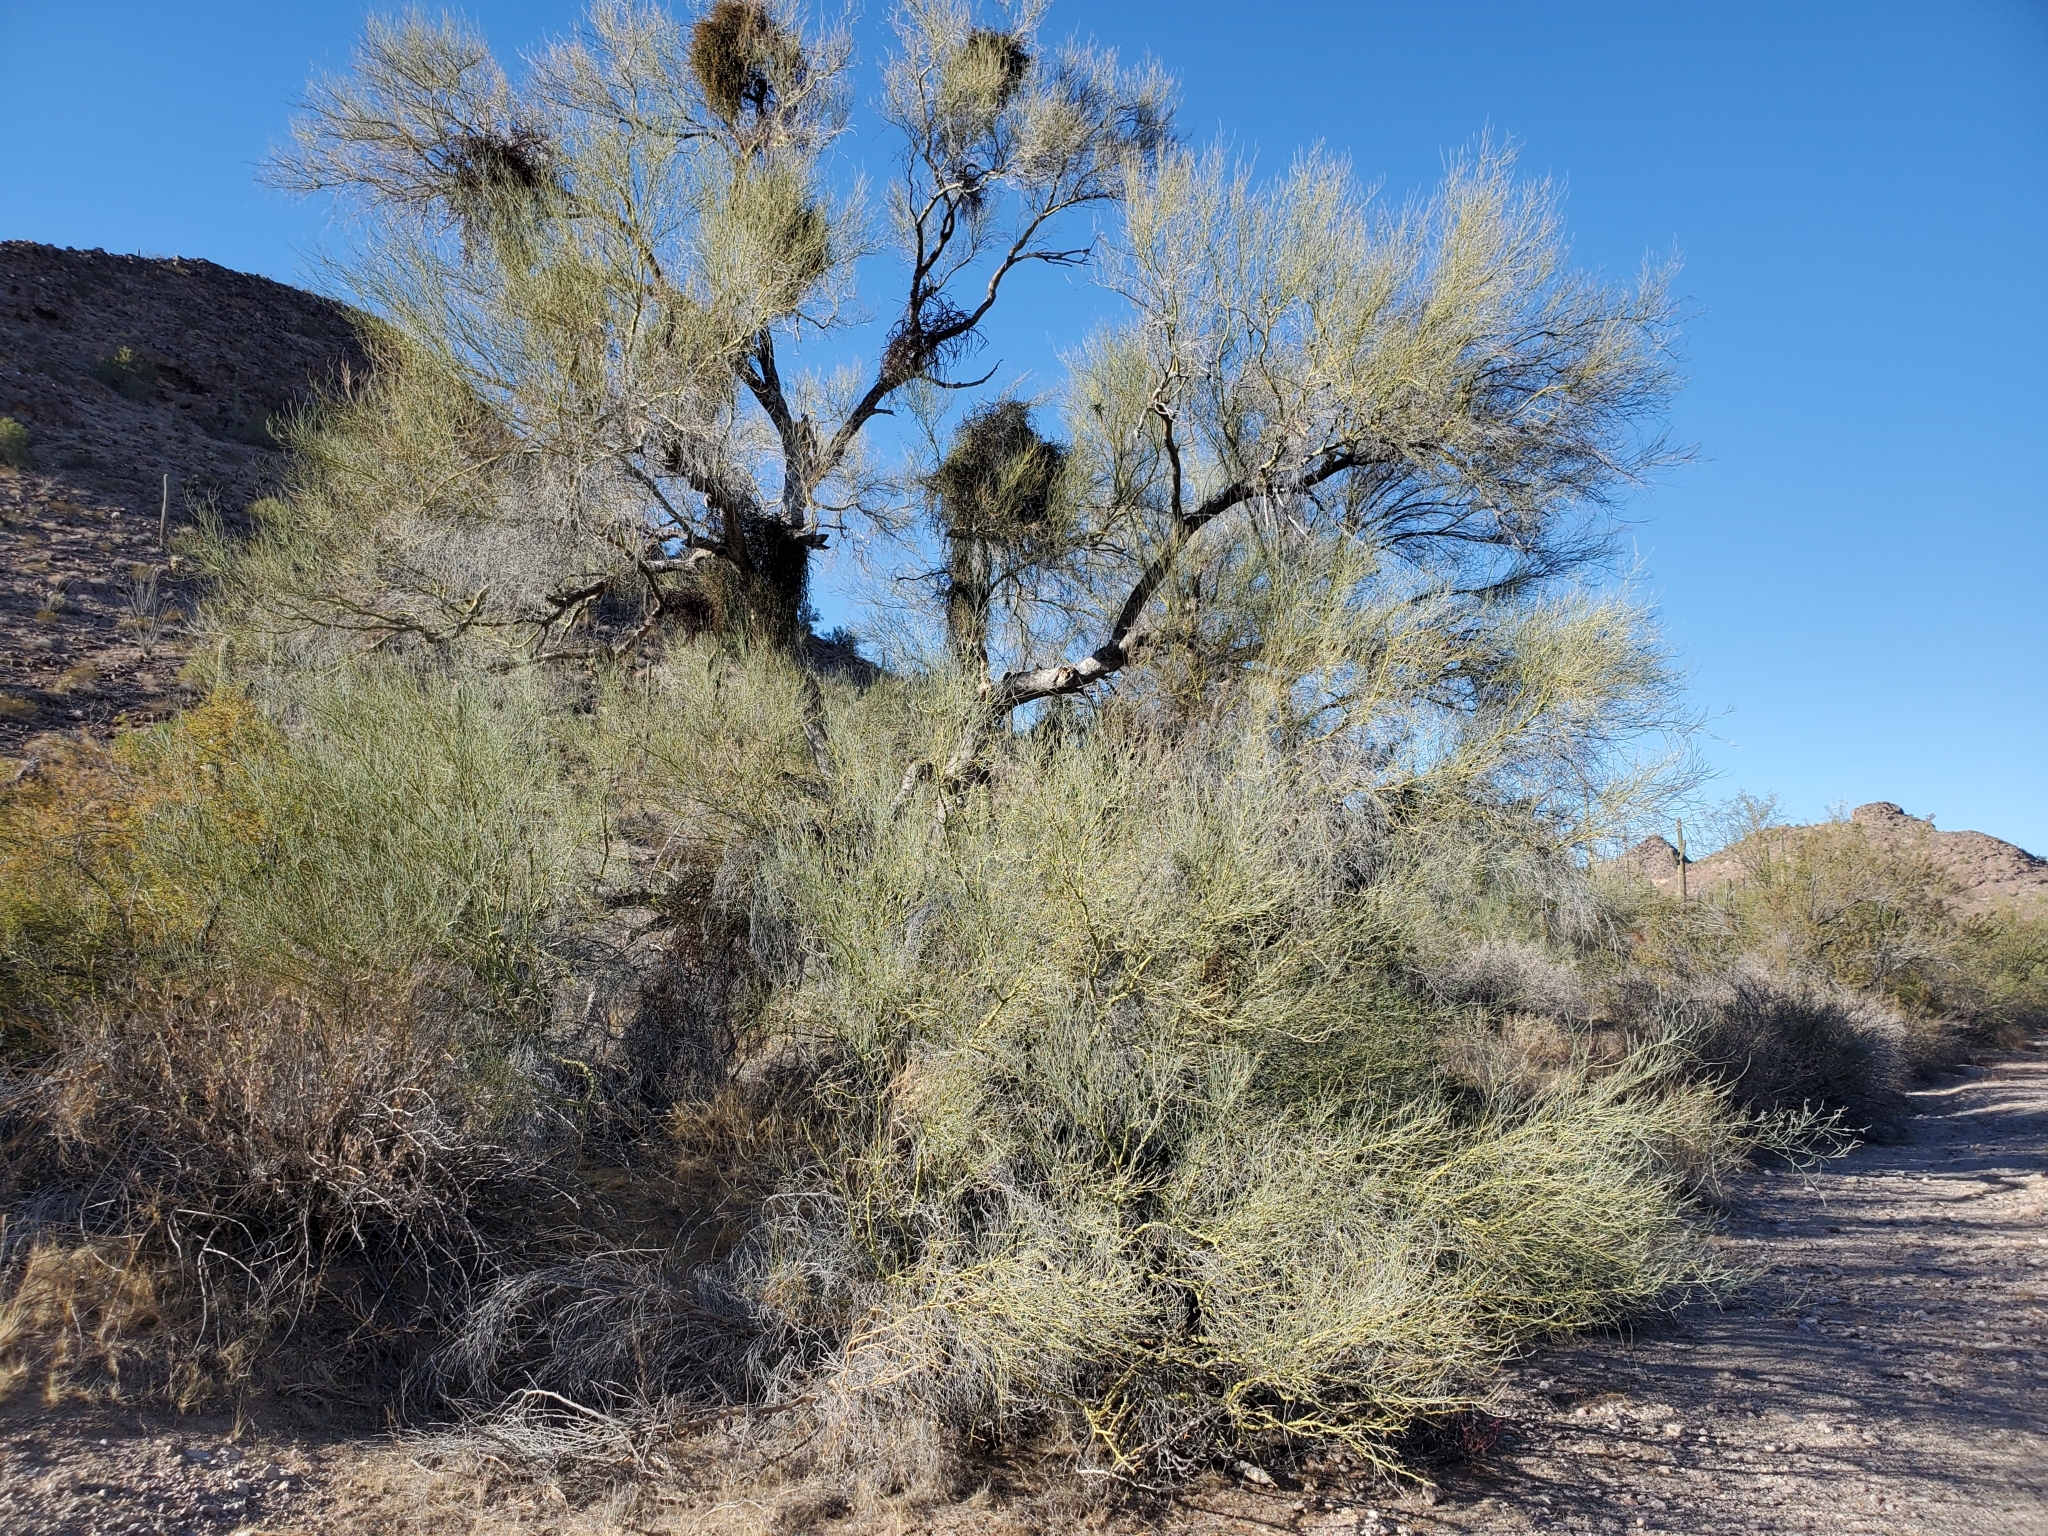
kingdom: Plantae
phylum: Tracheophyta
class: Magnoliopsida
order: Fabales
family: Fabaceae
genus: Parkinsonia
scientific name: Parkinsonia florida
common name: Blue paloverde
